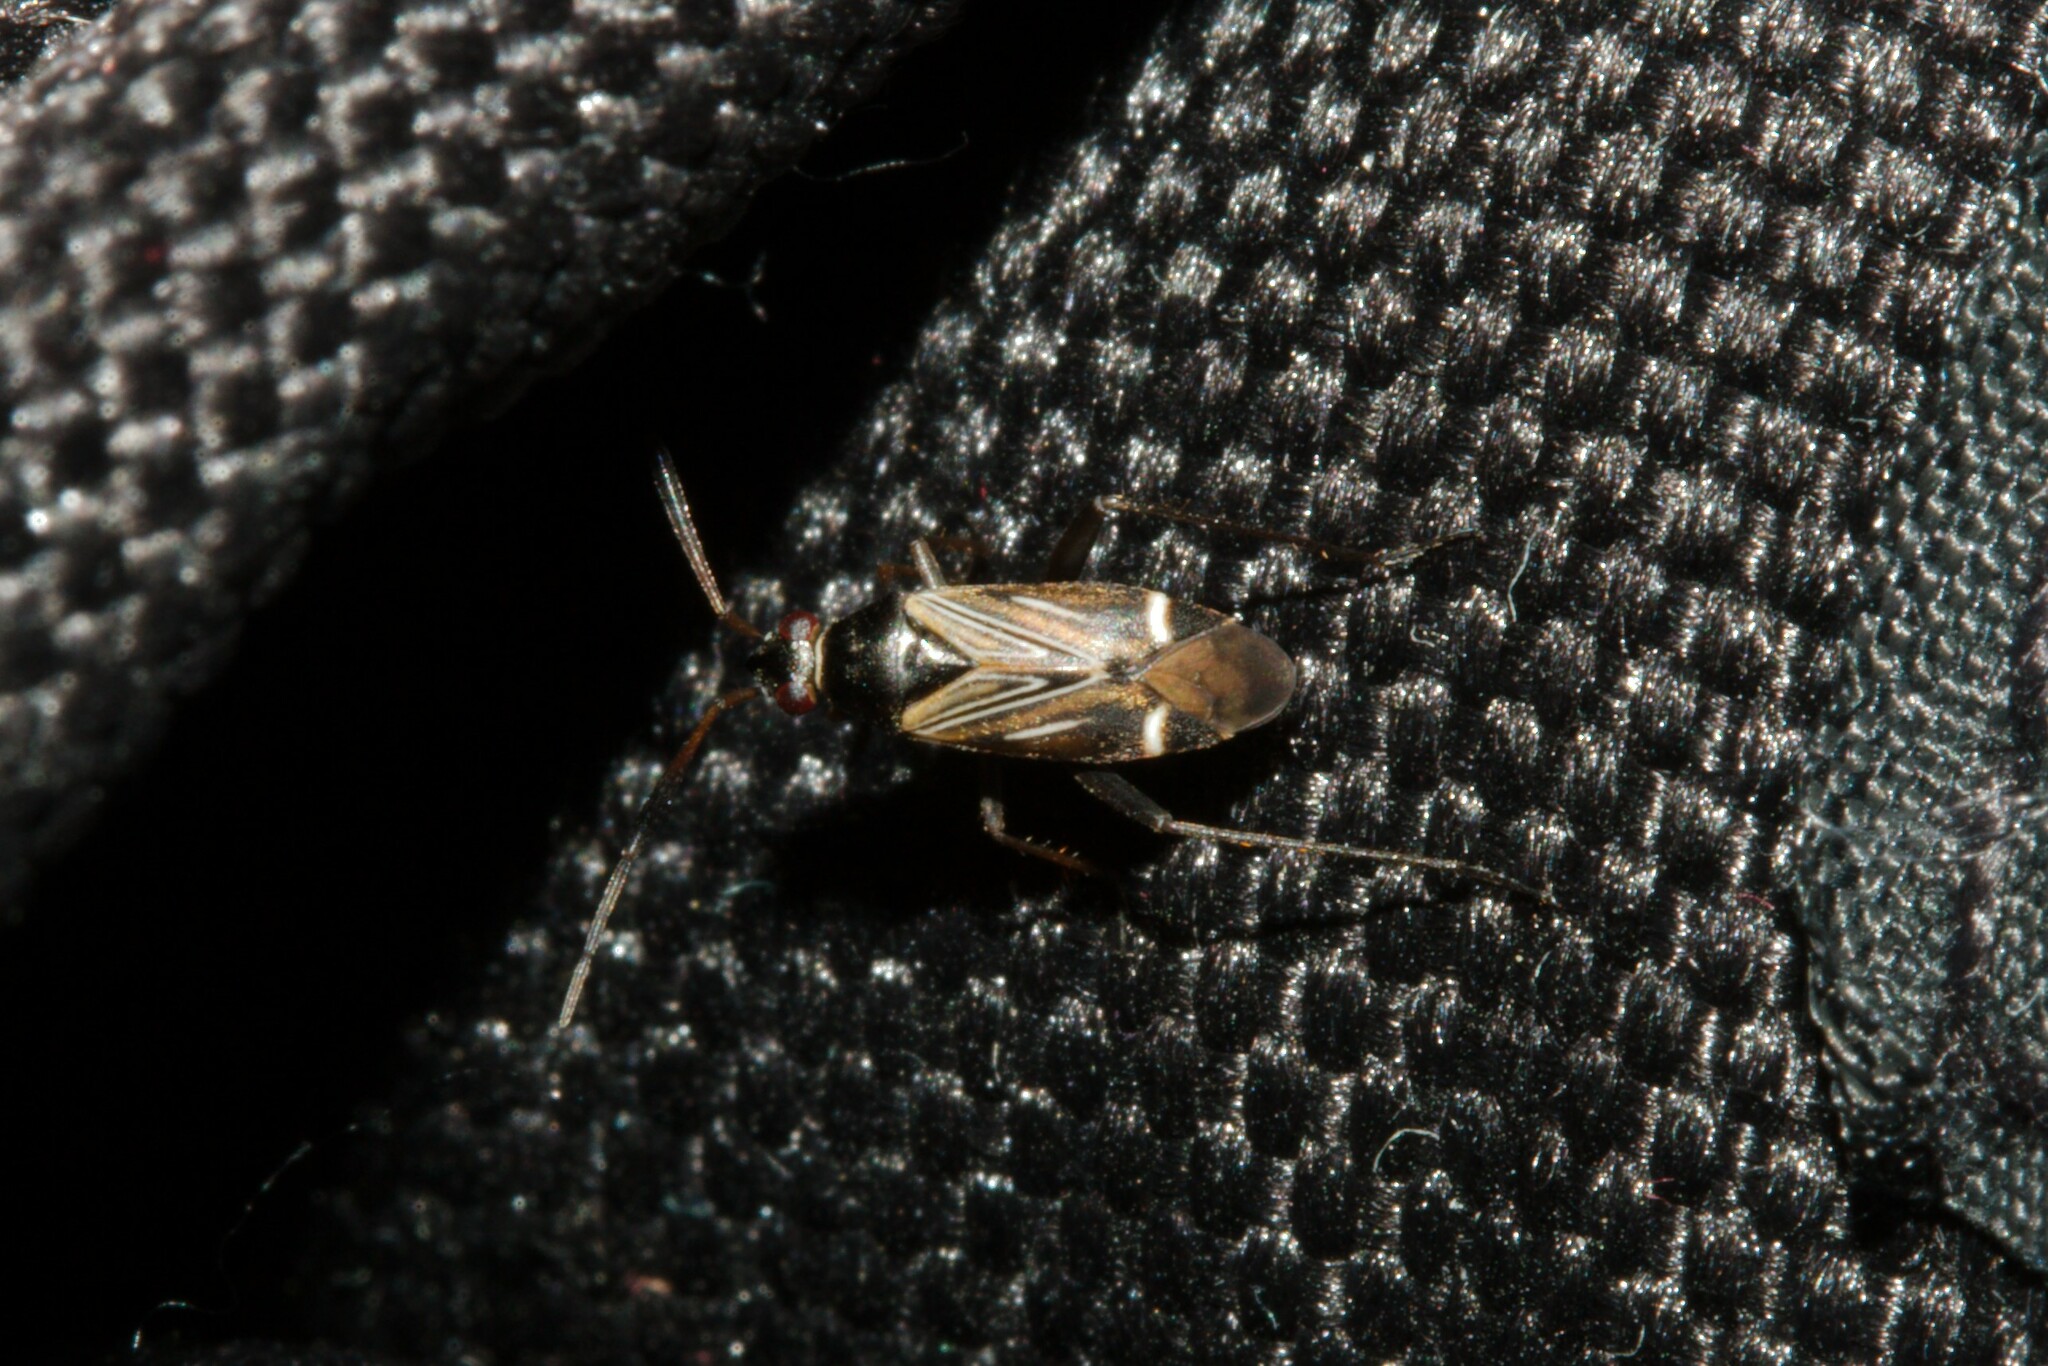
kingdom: Animalia
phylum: Arthropoda
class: Insecta
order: Hemiptera
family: Miridae
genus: Cremnocephalus
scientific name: Cremnocephalus alpestris
